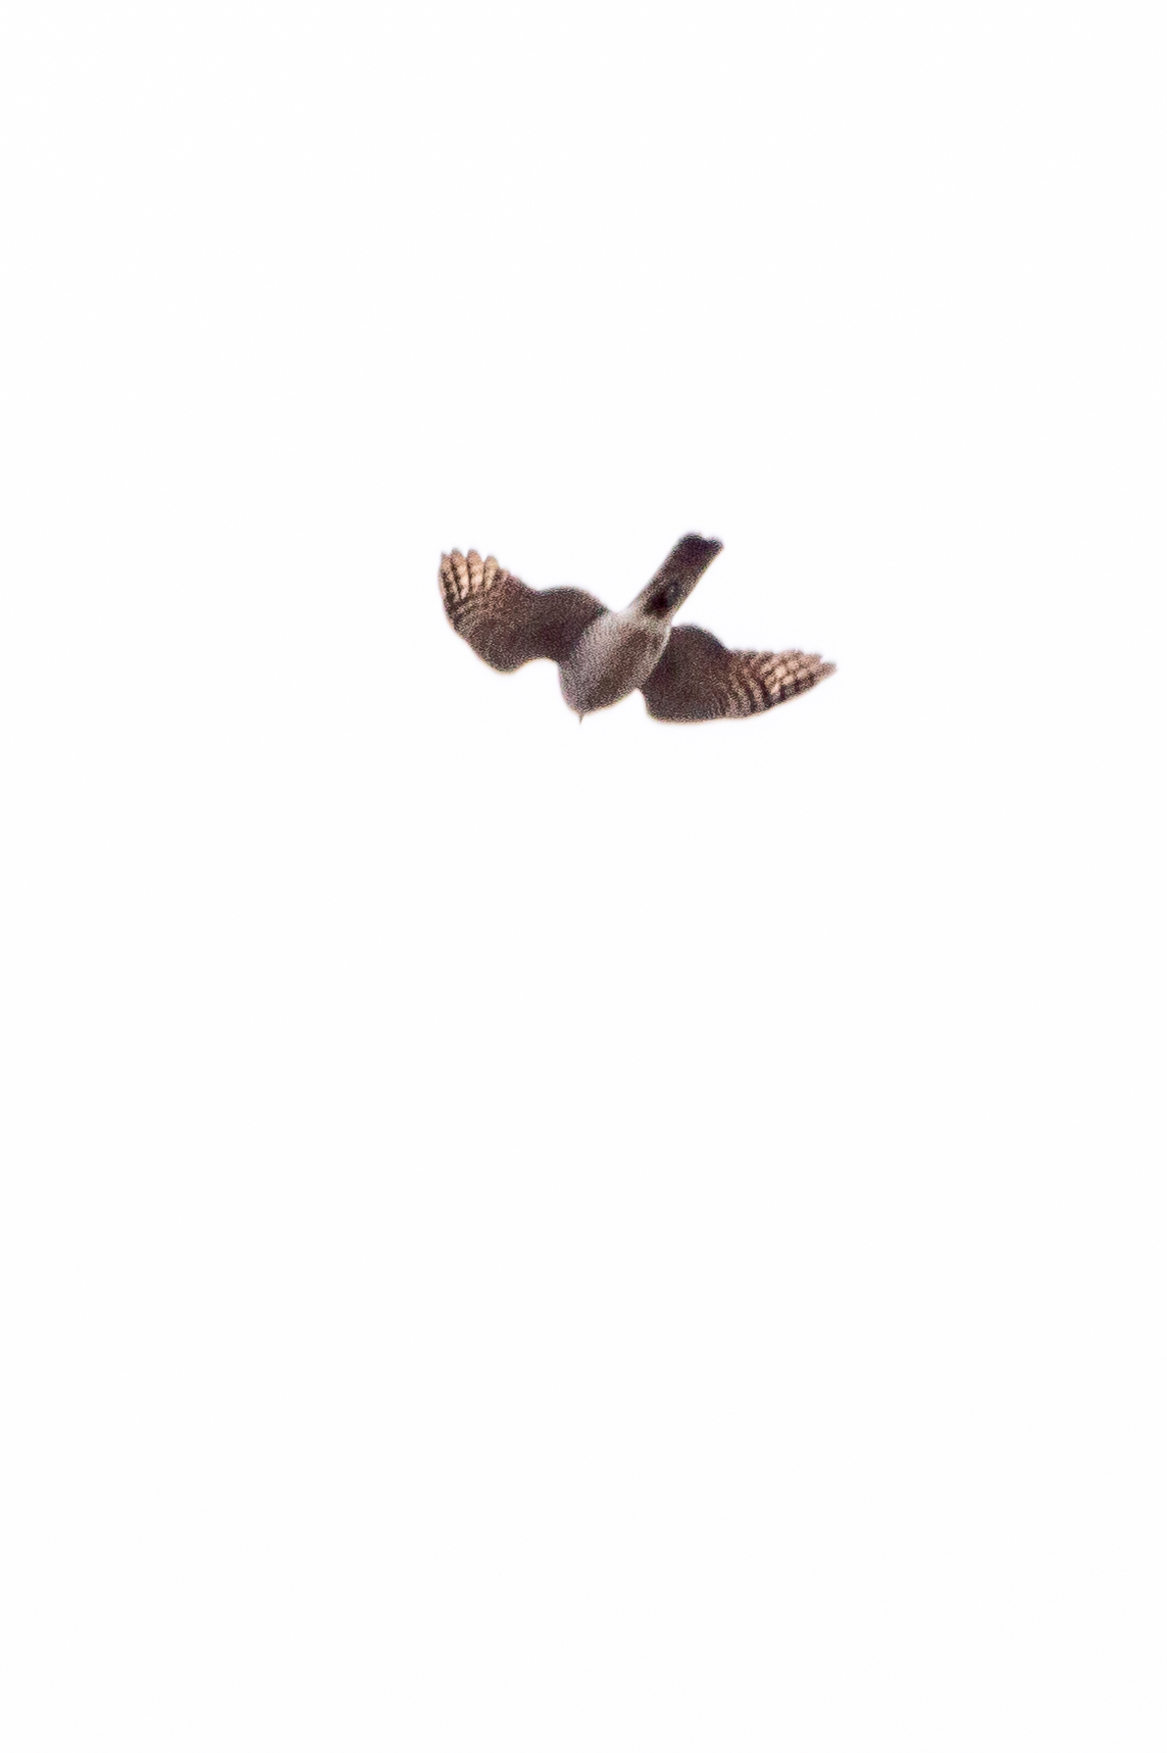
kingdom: Animalia
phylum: Chordata
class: Aves
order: Accipitriformes
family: Accipitridae
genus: Accipiter
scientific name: Accipiter nisus
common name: Eurasian sparrowhawk
